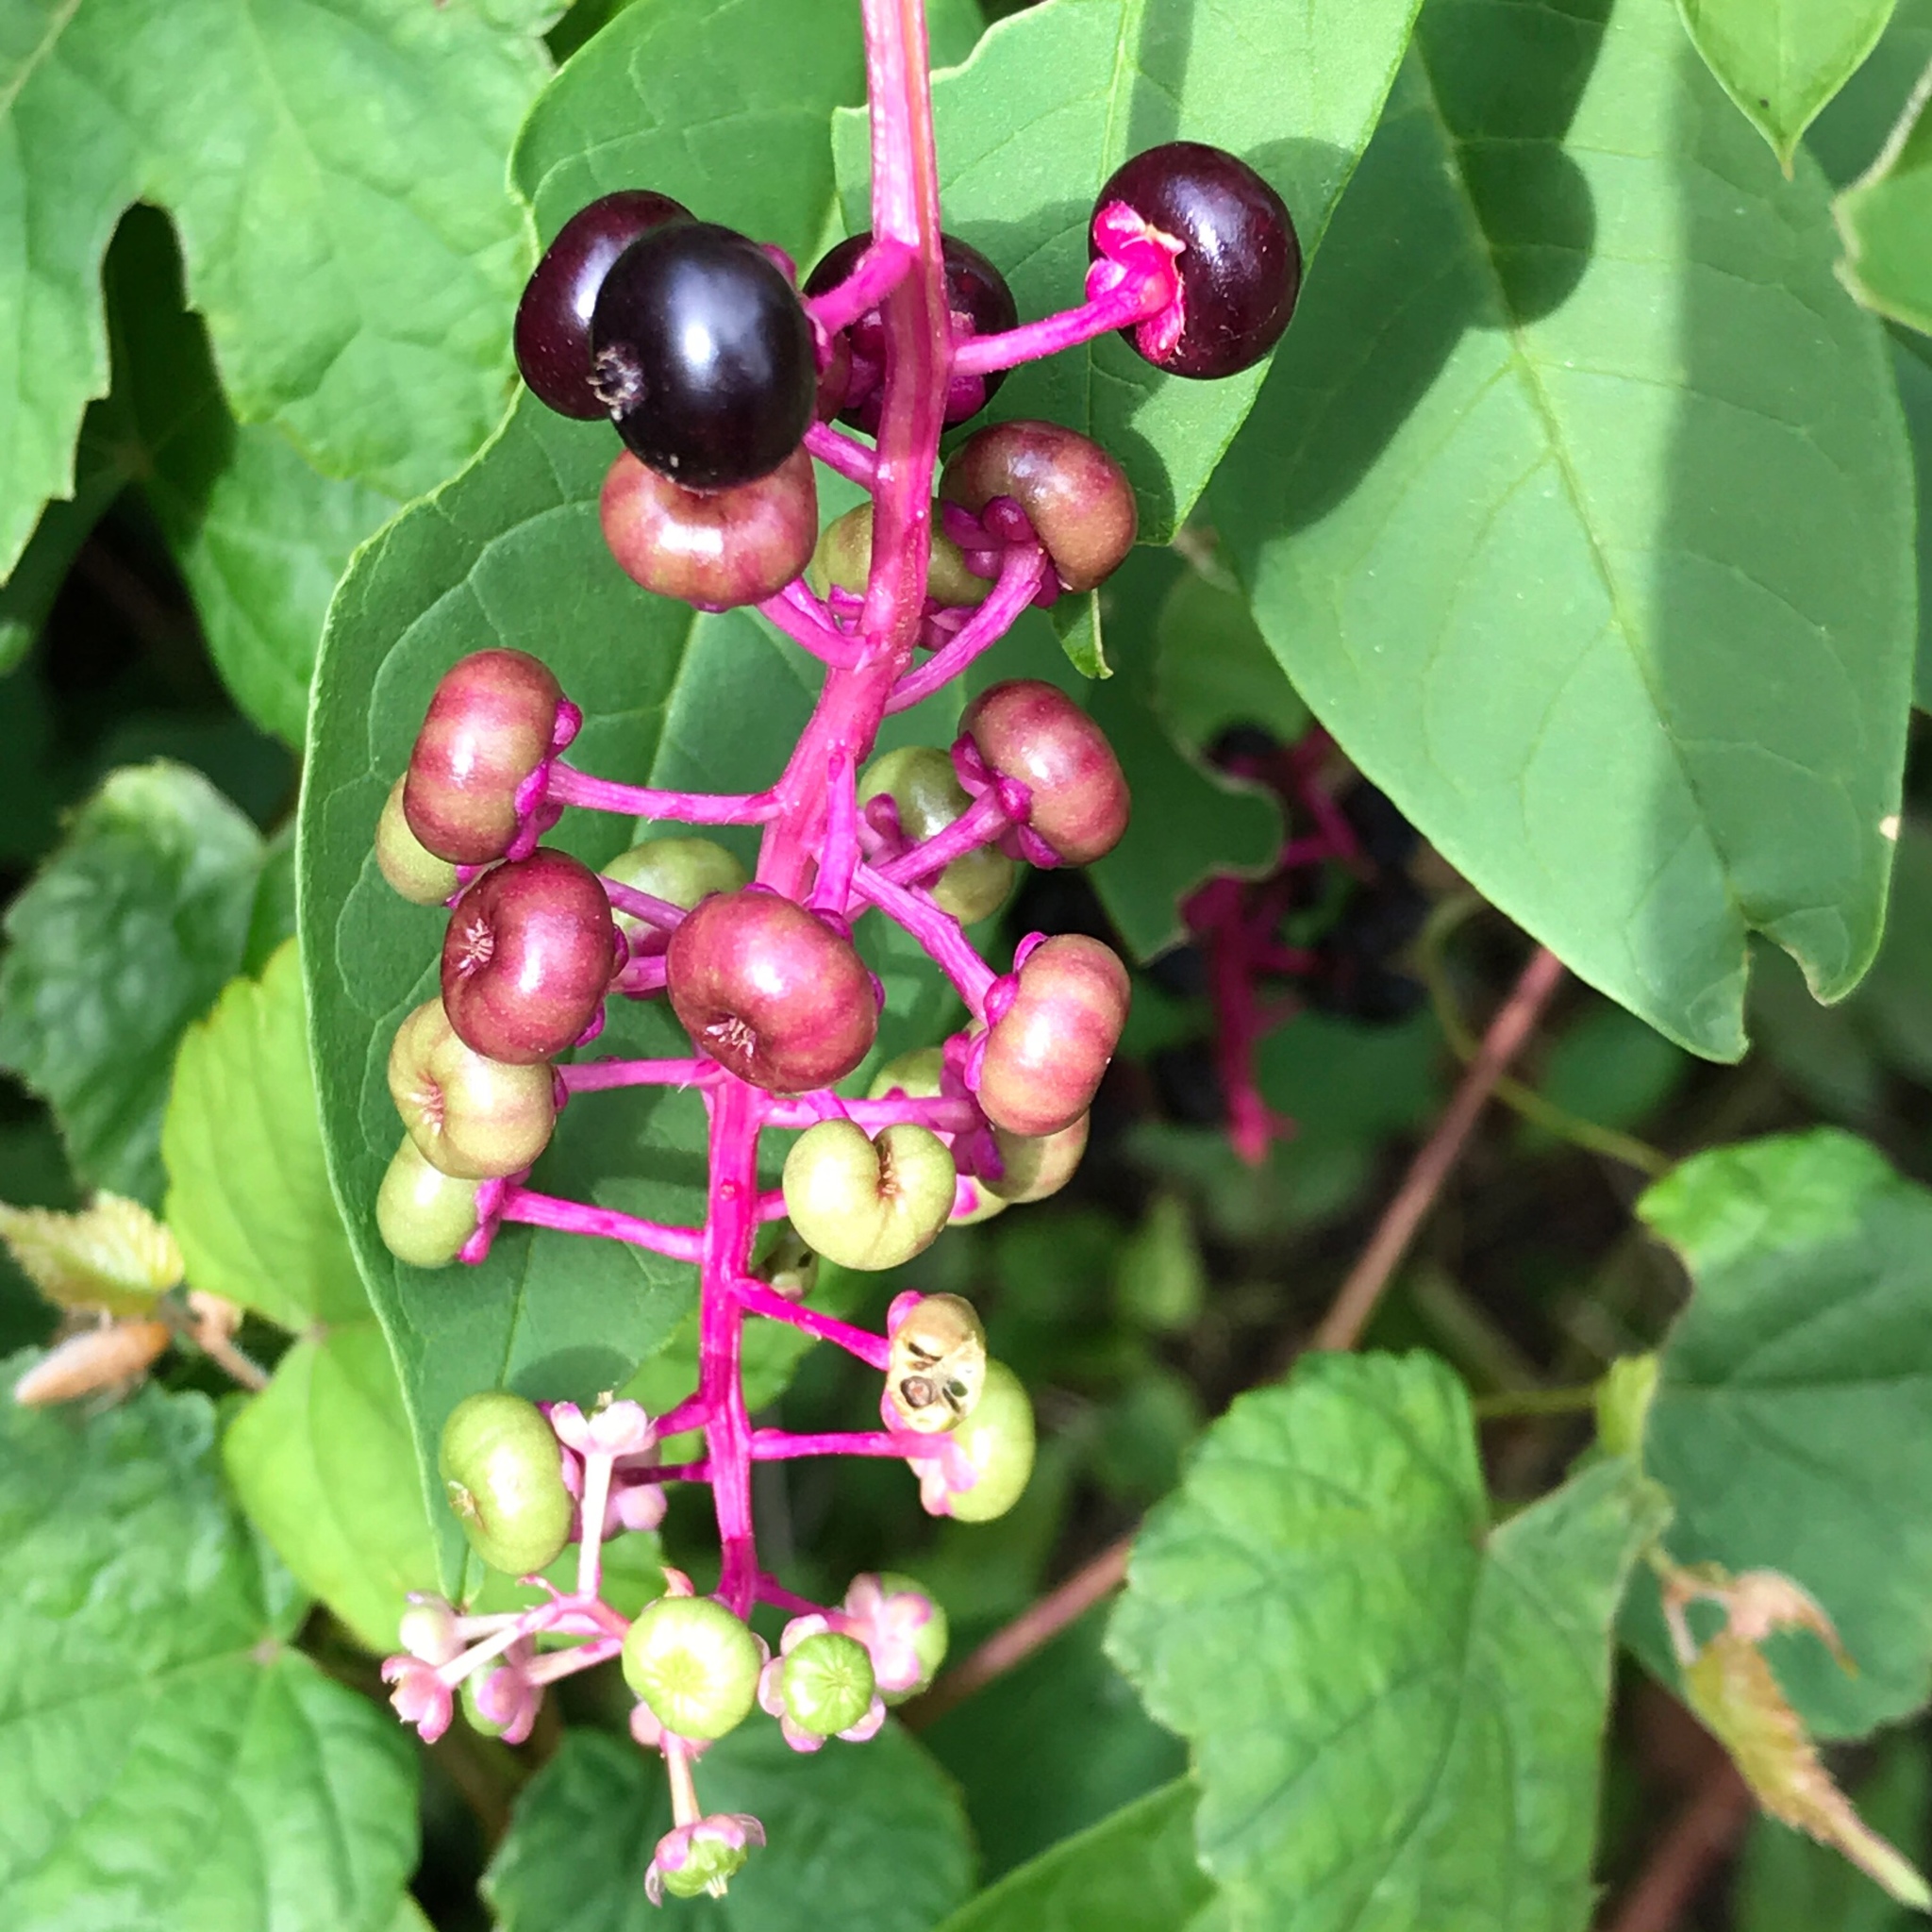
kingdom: Plantae
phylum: Tracheophyta
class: Magnoliopsida
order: Caryophyllales
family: Phytolaccaceae
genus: Phytolacca
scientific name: Phytolacca americana
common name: American pokeweed
